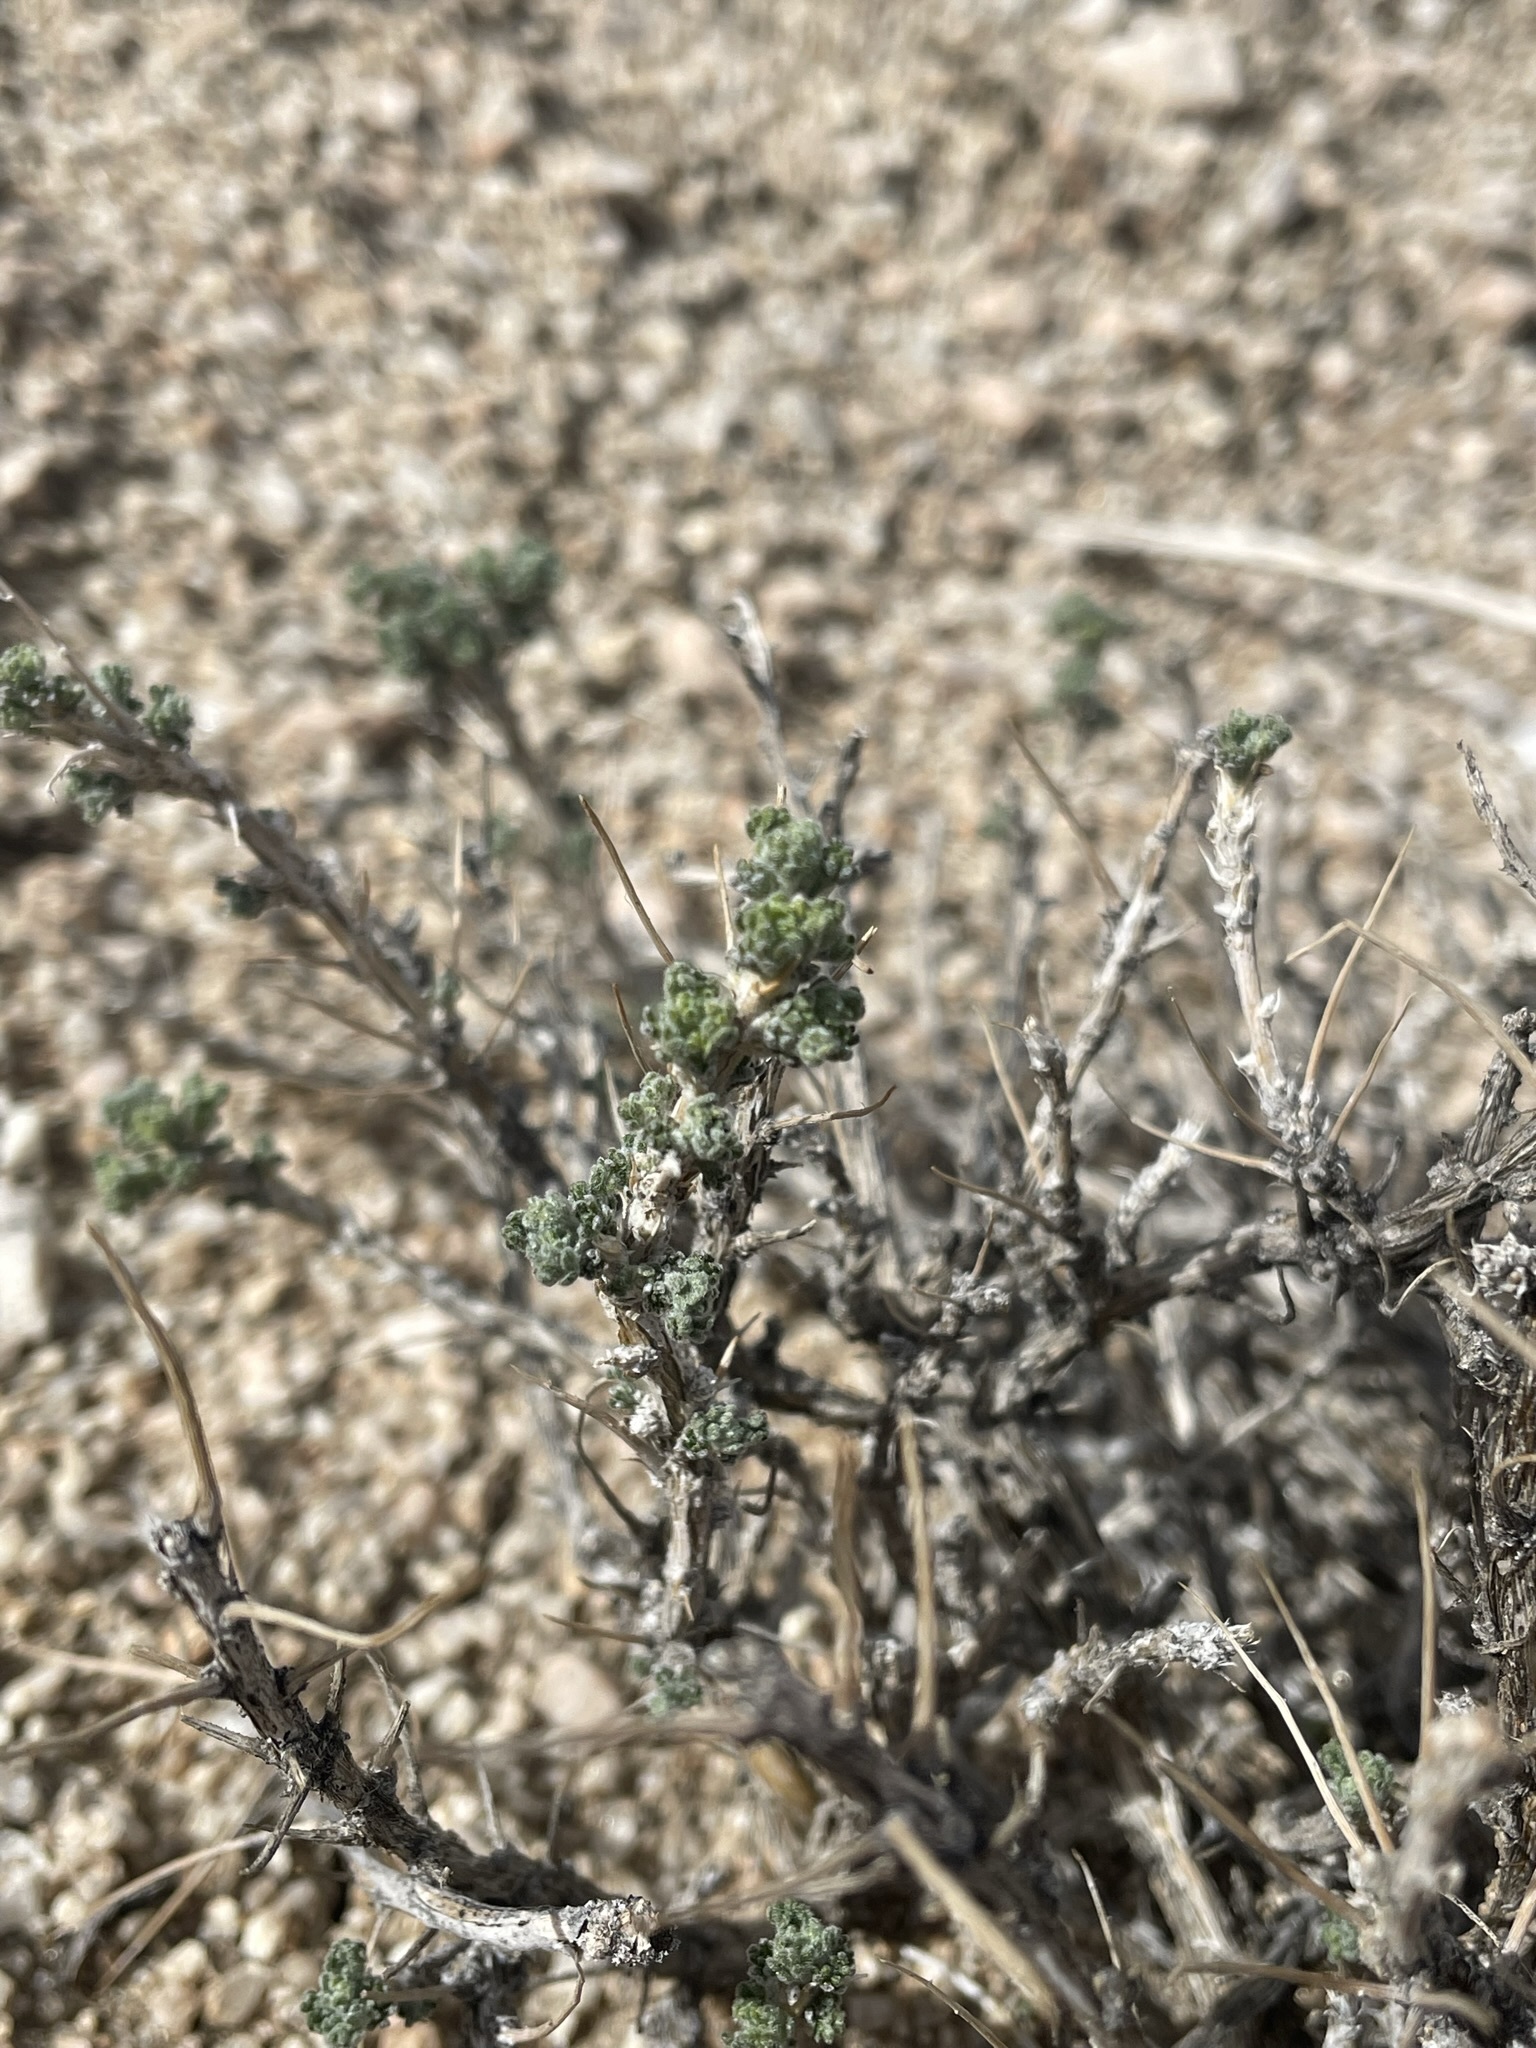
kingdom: Plantae
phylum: Tracheophyta
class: Magnoliopsida
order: Asterales
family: Asteraceae
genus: Artemisia
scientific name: Artemisia spinescens
